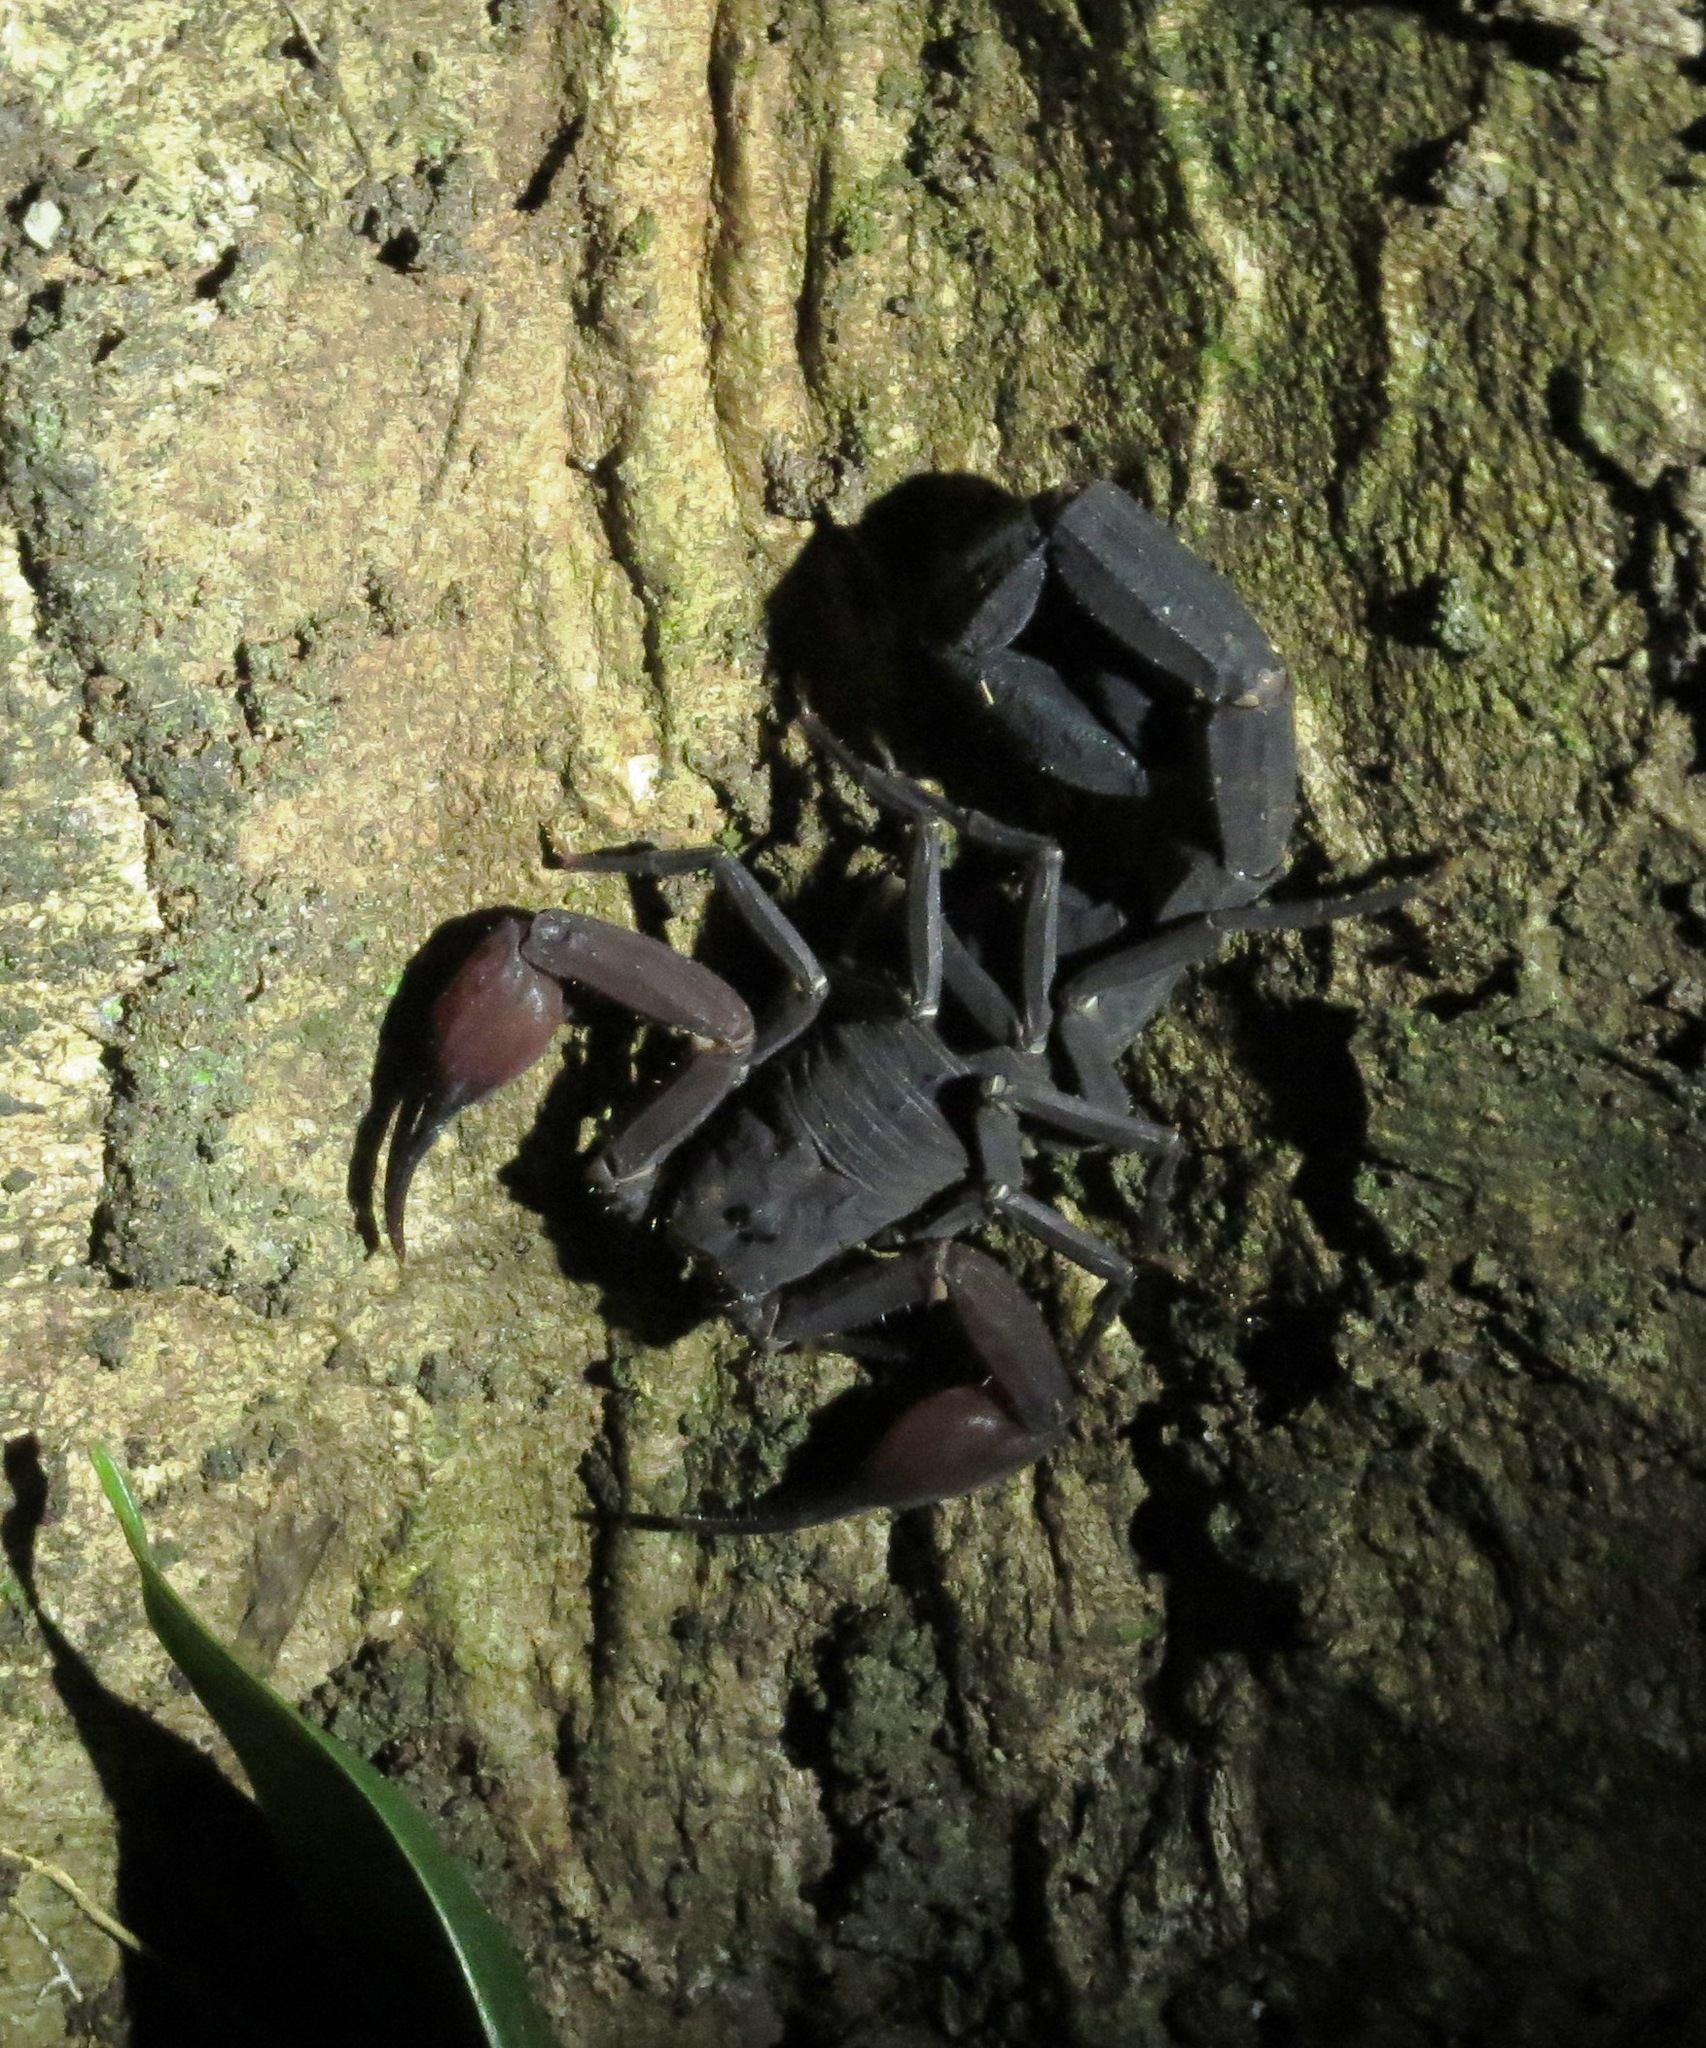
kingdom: Animalia
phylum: Arthropoda
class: Arachnida
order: Scorpiones
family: Buthidae
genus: Tityus
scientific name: Tityus metuendus
